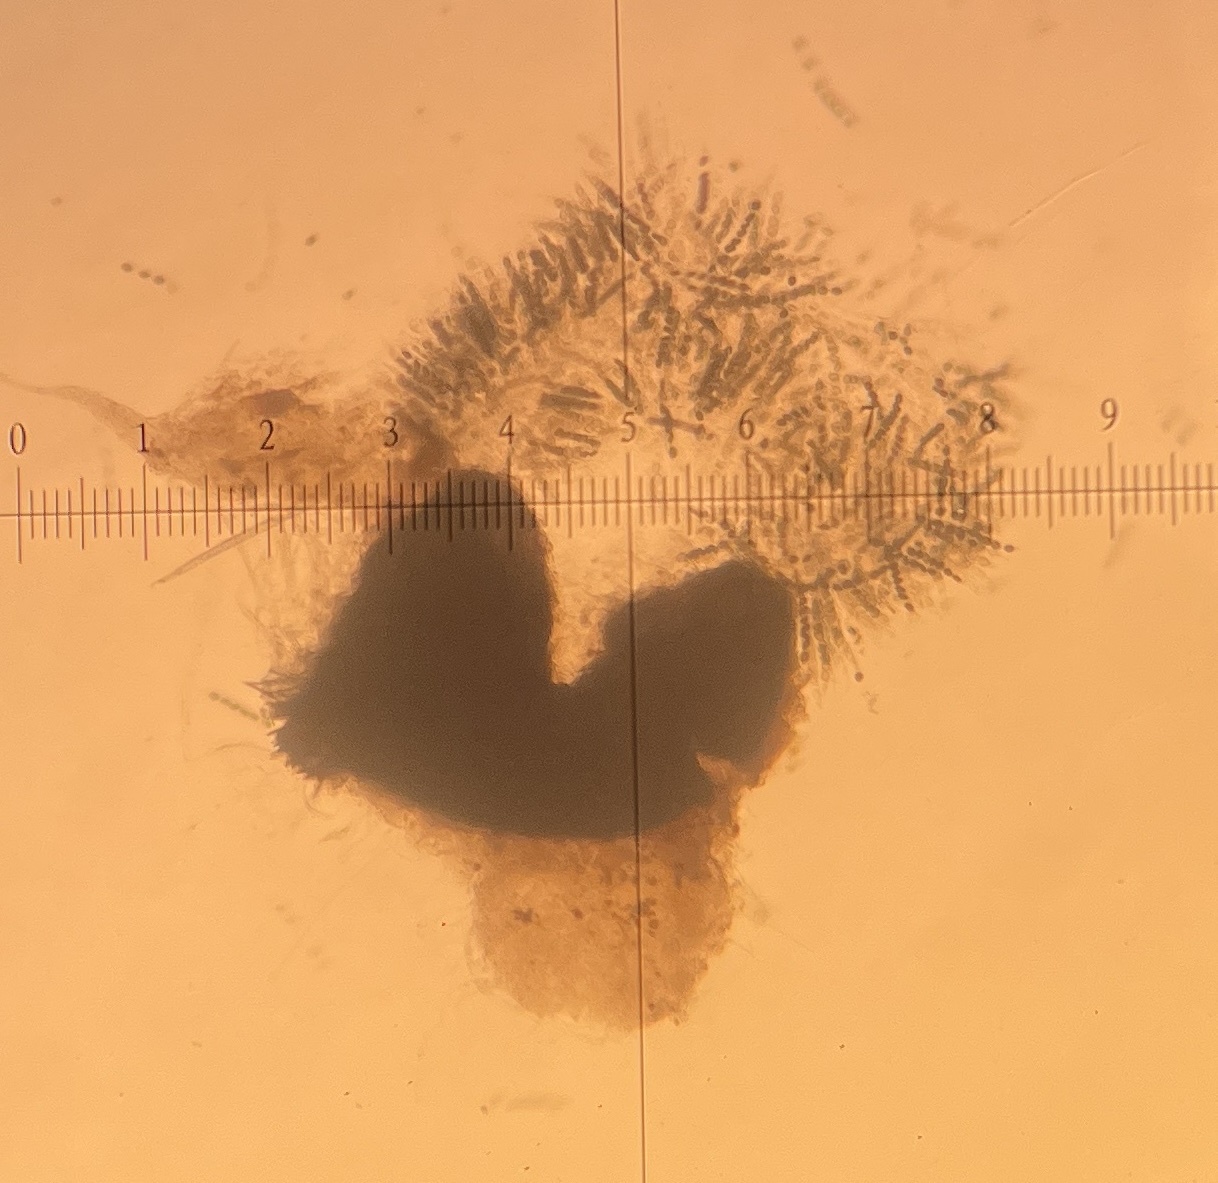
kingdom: Fungi
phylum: Ascomycota
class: Sordariomycetes
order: Coniochaetales
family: Coniochaetaceae
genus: Coniochaeta
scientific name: Coniochaeta leucoplaca
